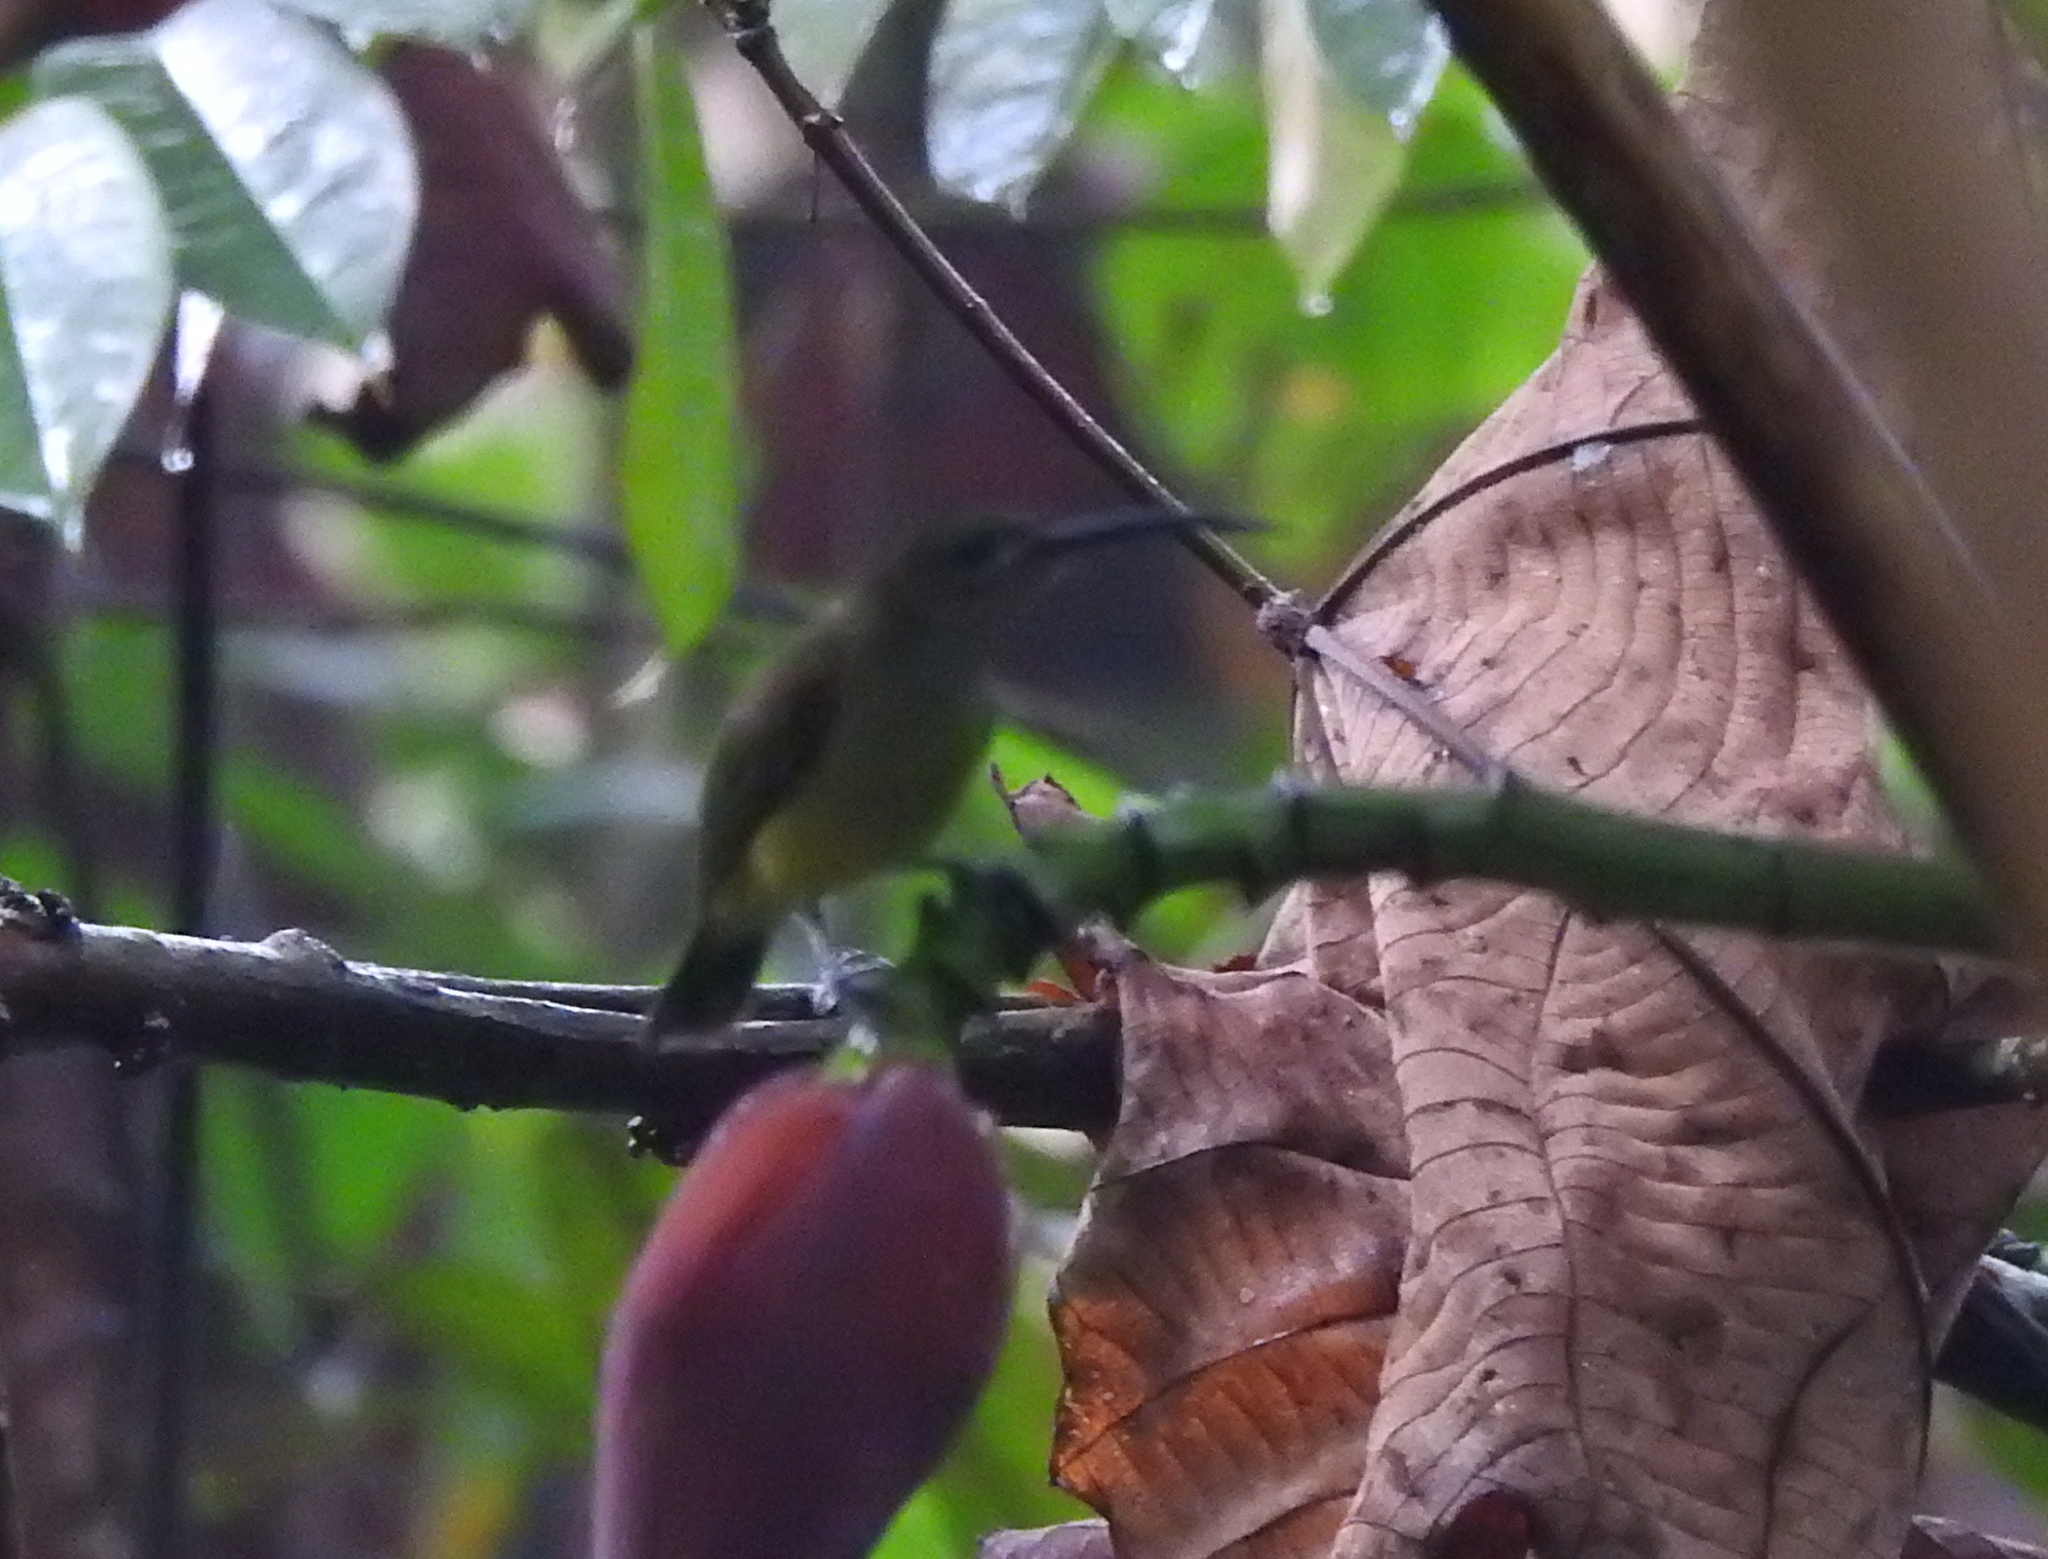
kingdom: Animalia
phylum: Chordata
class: Aves
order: Passeriformes
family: Nectariniidae
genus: Arachnothera
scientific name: Arachnothera longirostra
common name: Little spiderhunter
